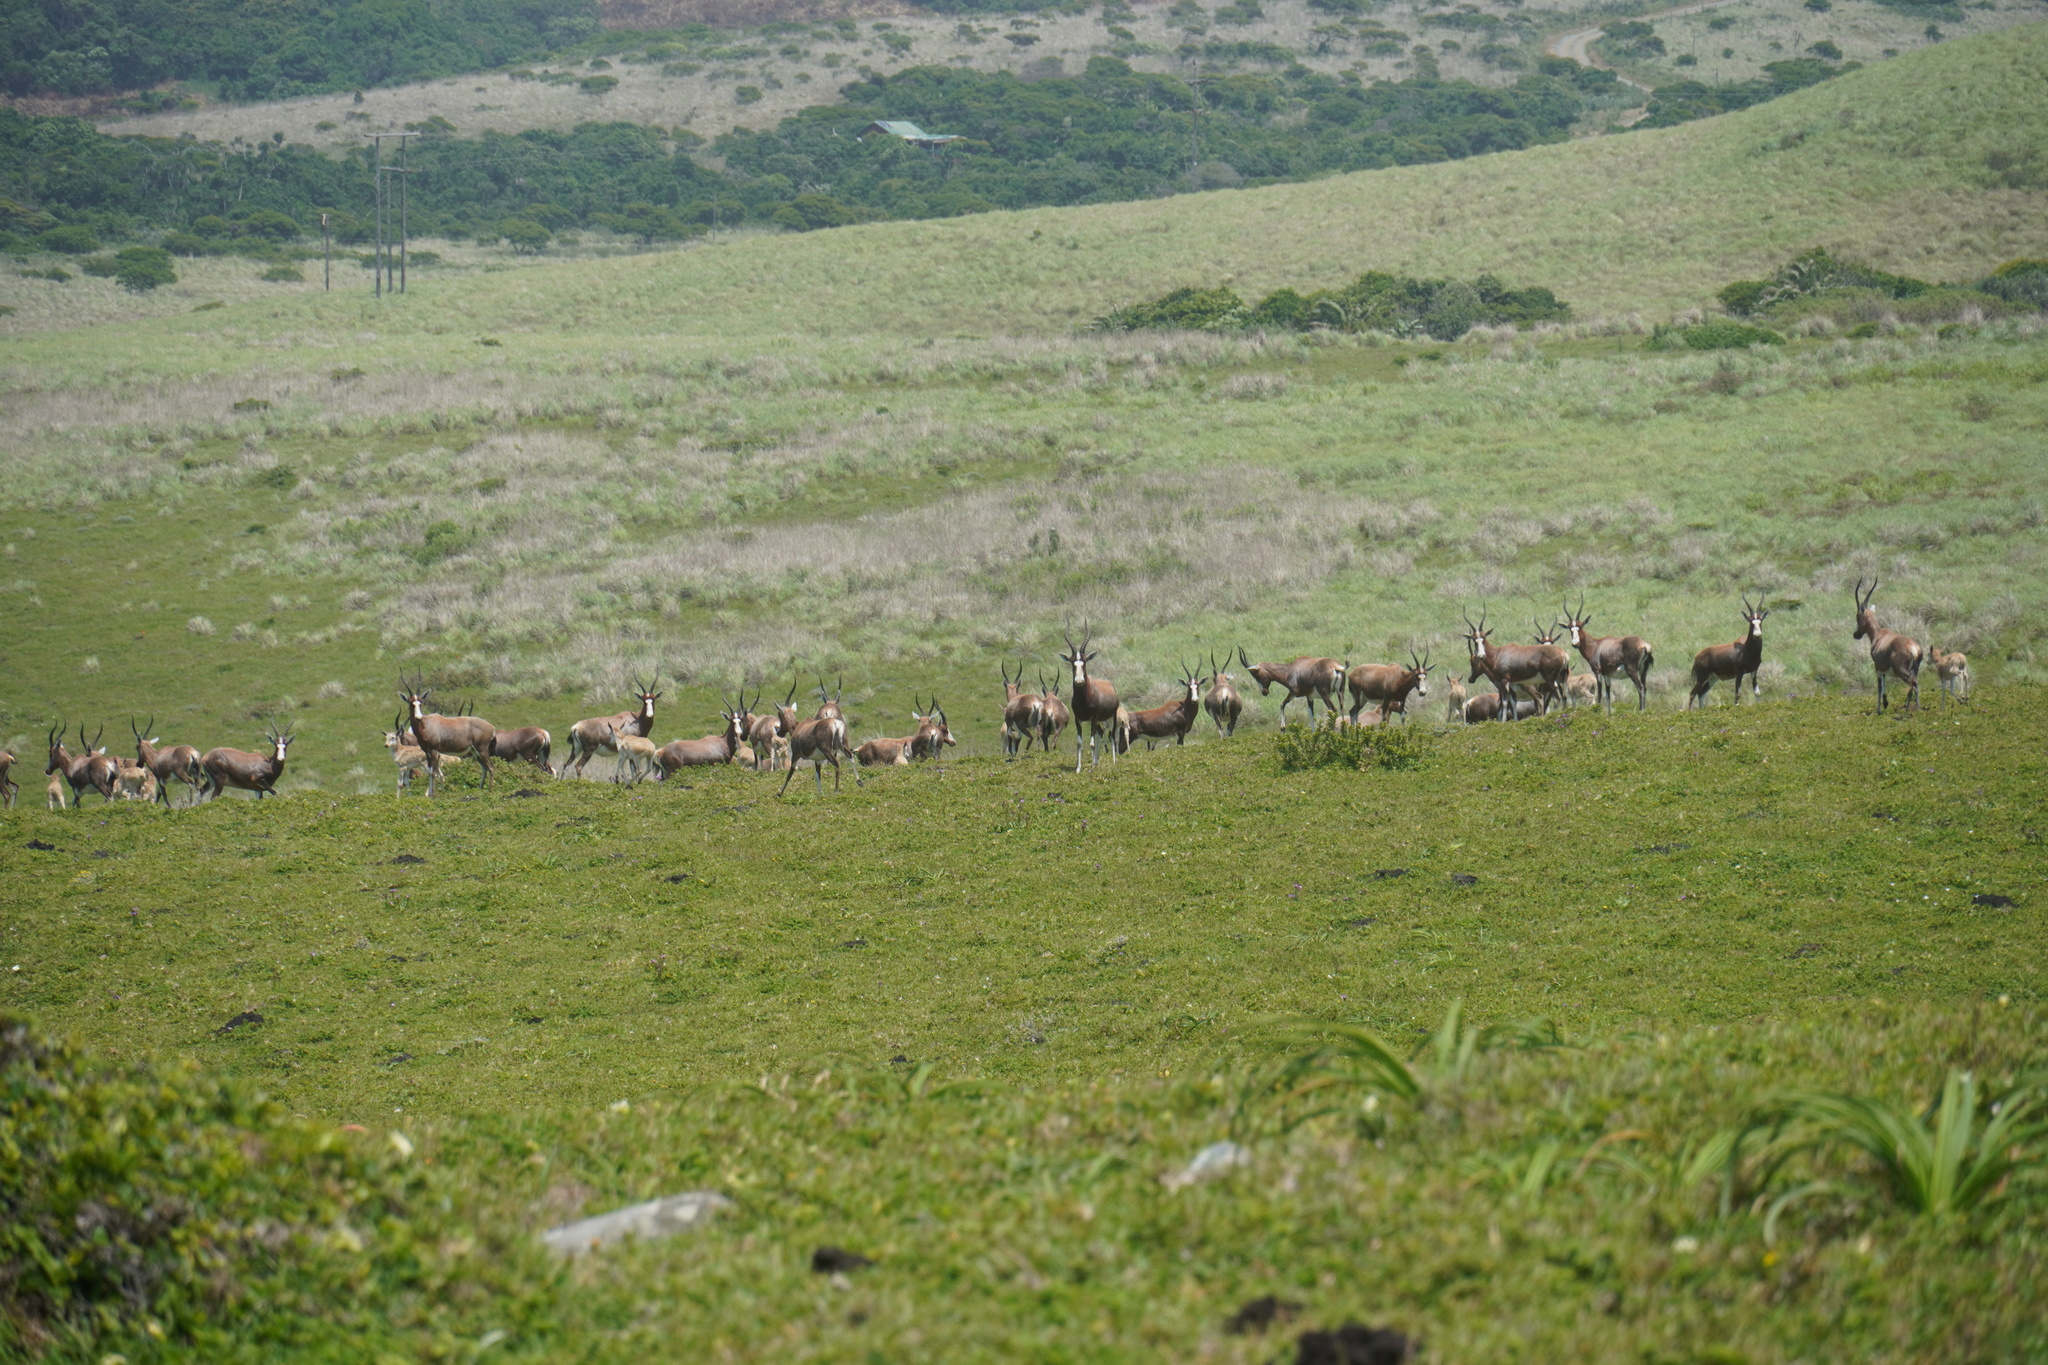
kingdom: Animalia
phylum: Chordata
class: Mammalia
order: Artiodactyla
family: Bovidae
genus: Damaliscus
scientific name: Damaliscus pygargus
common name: Bontebok
